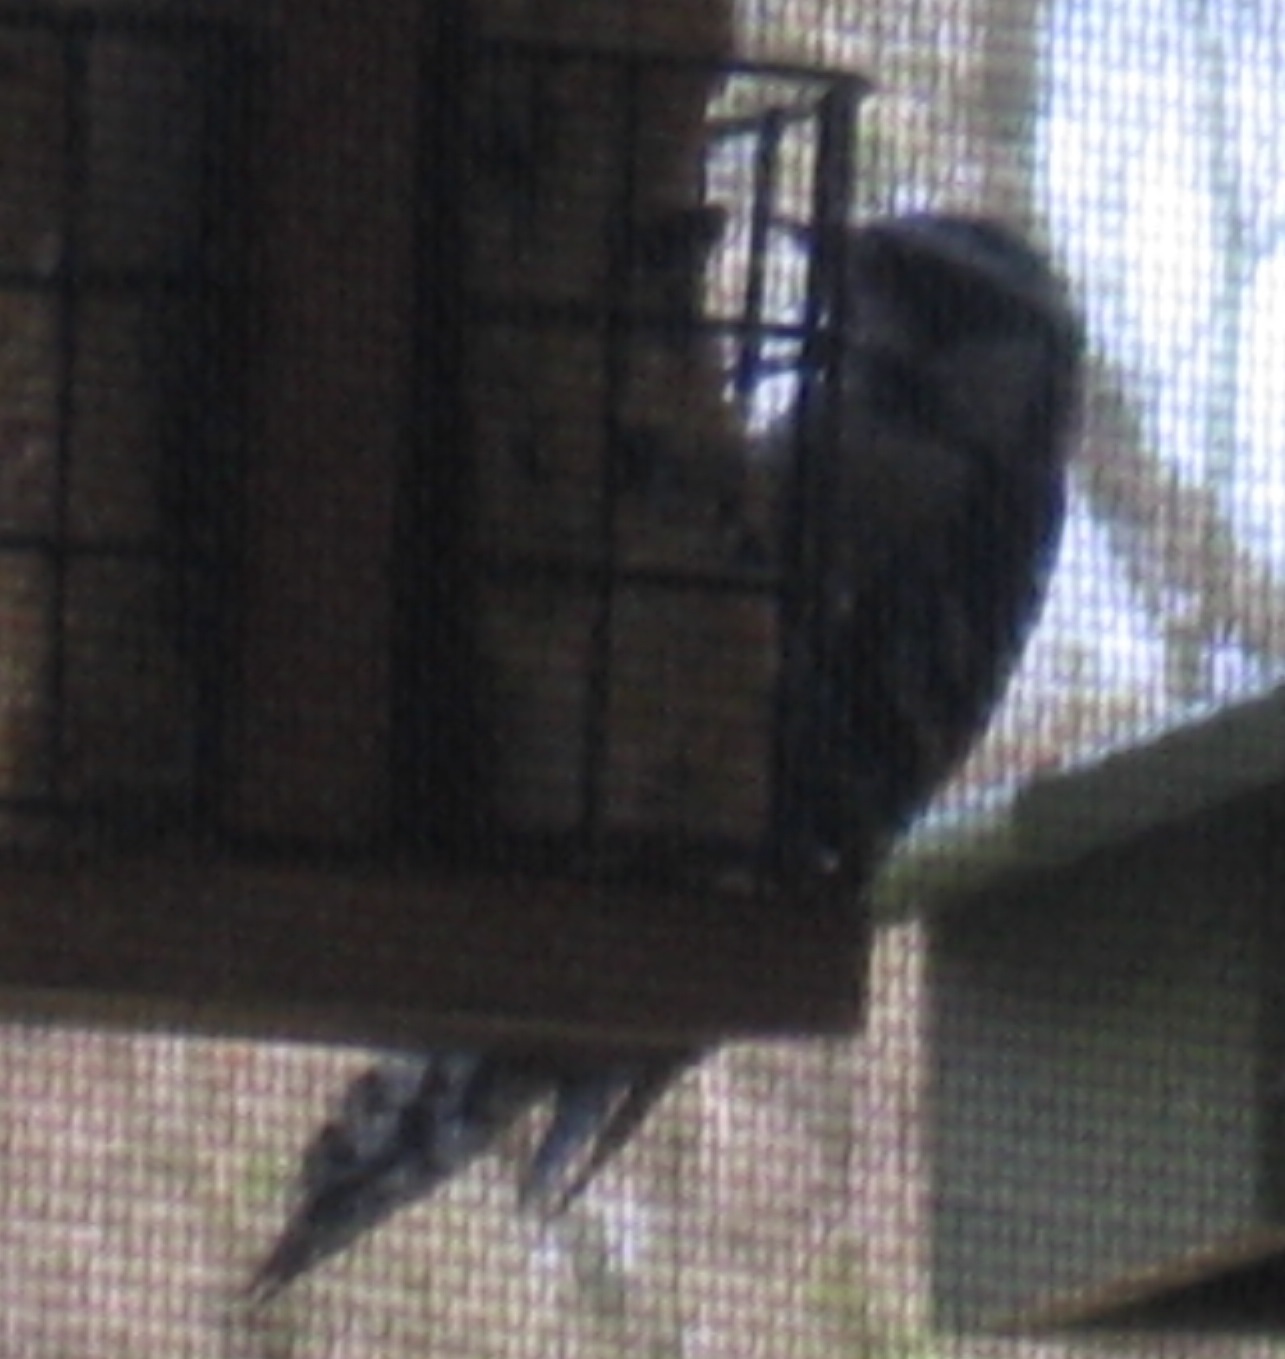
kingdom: Animalia
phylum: Chordata
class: Aves
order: Piciformes
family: Picidae
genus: Dryobates
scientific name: Dryobates pubescens
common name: Downy woodpecker
